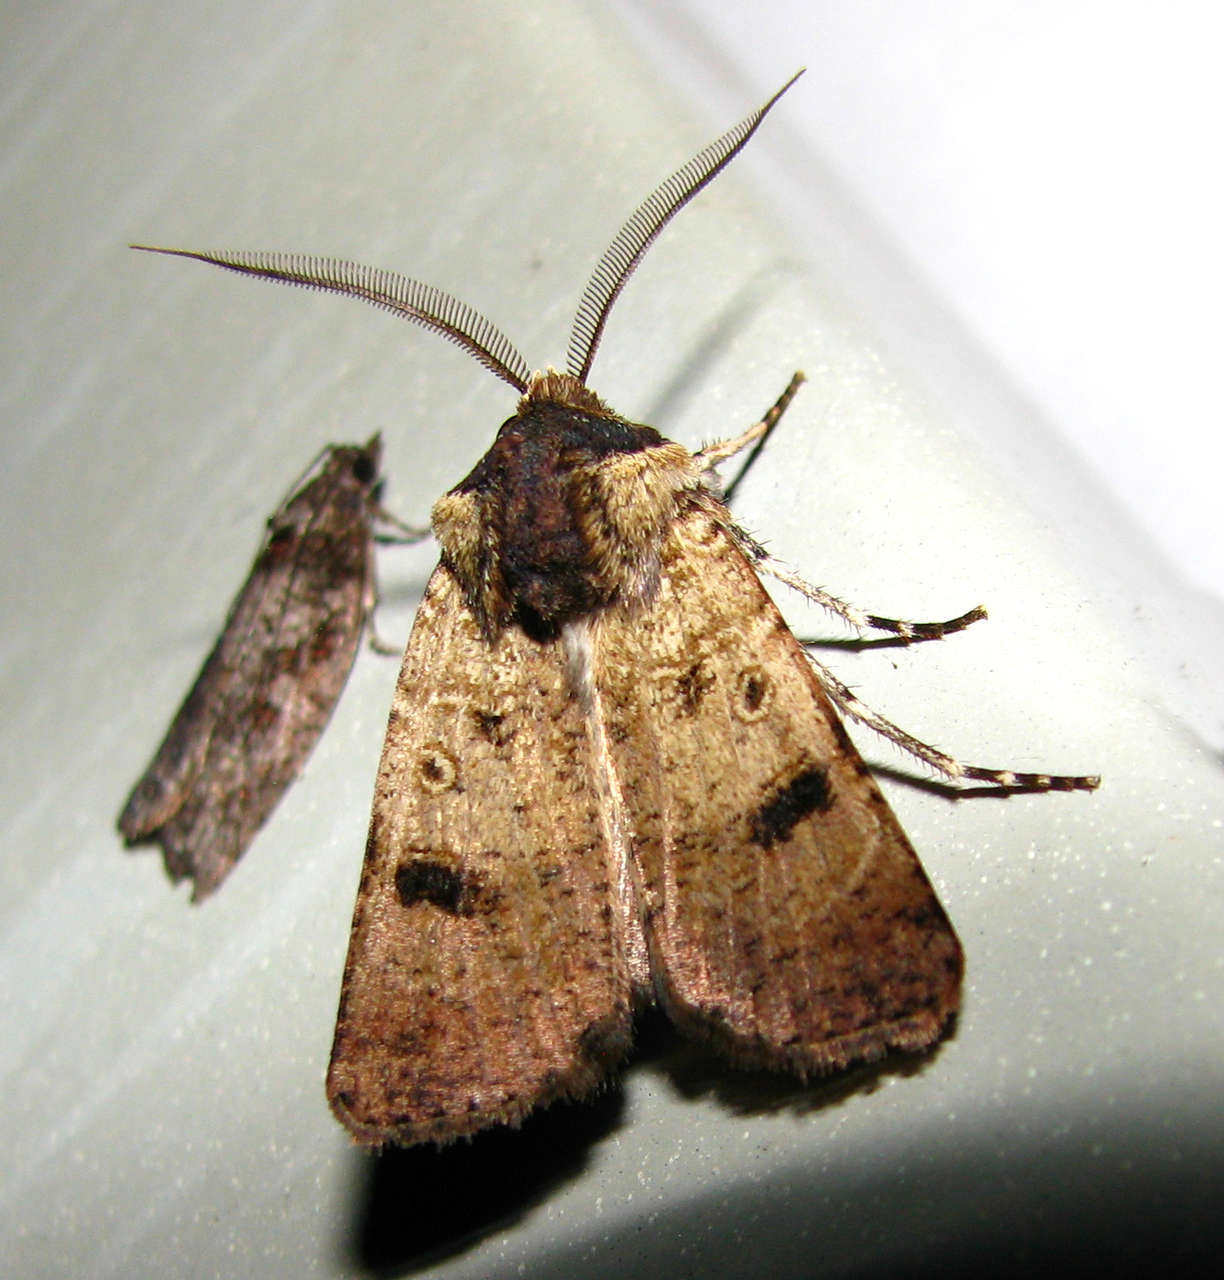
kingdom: Animalia
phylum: Arthropoda
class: Insecta
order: Lepidoptera
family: Noctuidae
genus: Agrotis
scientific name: Agrotis porphyricollis
